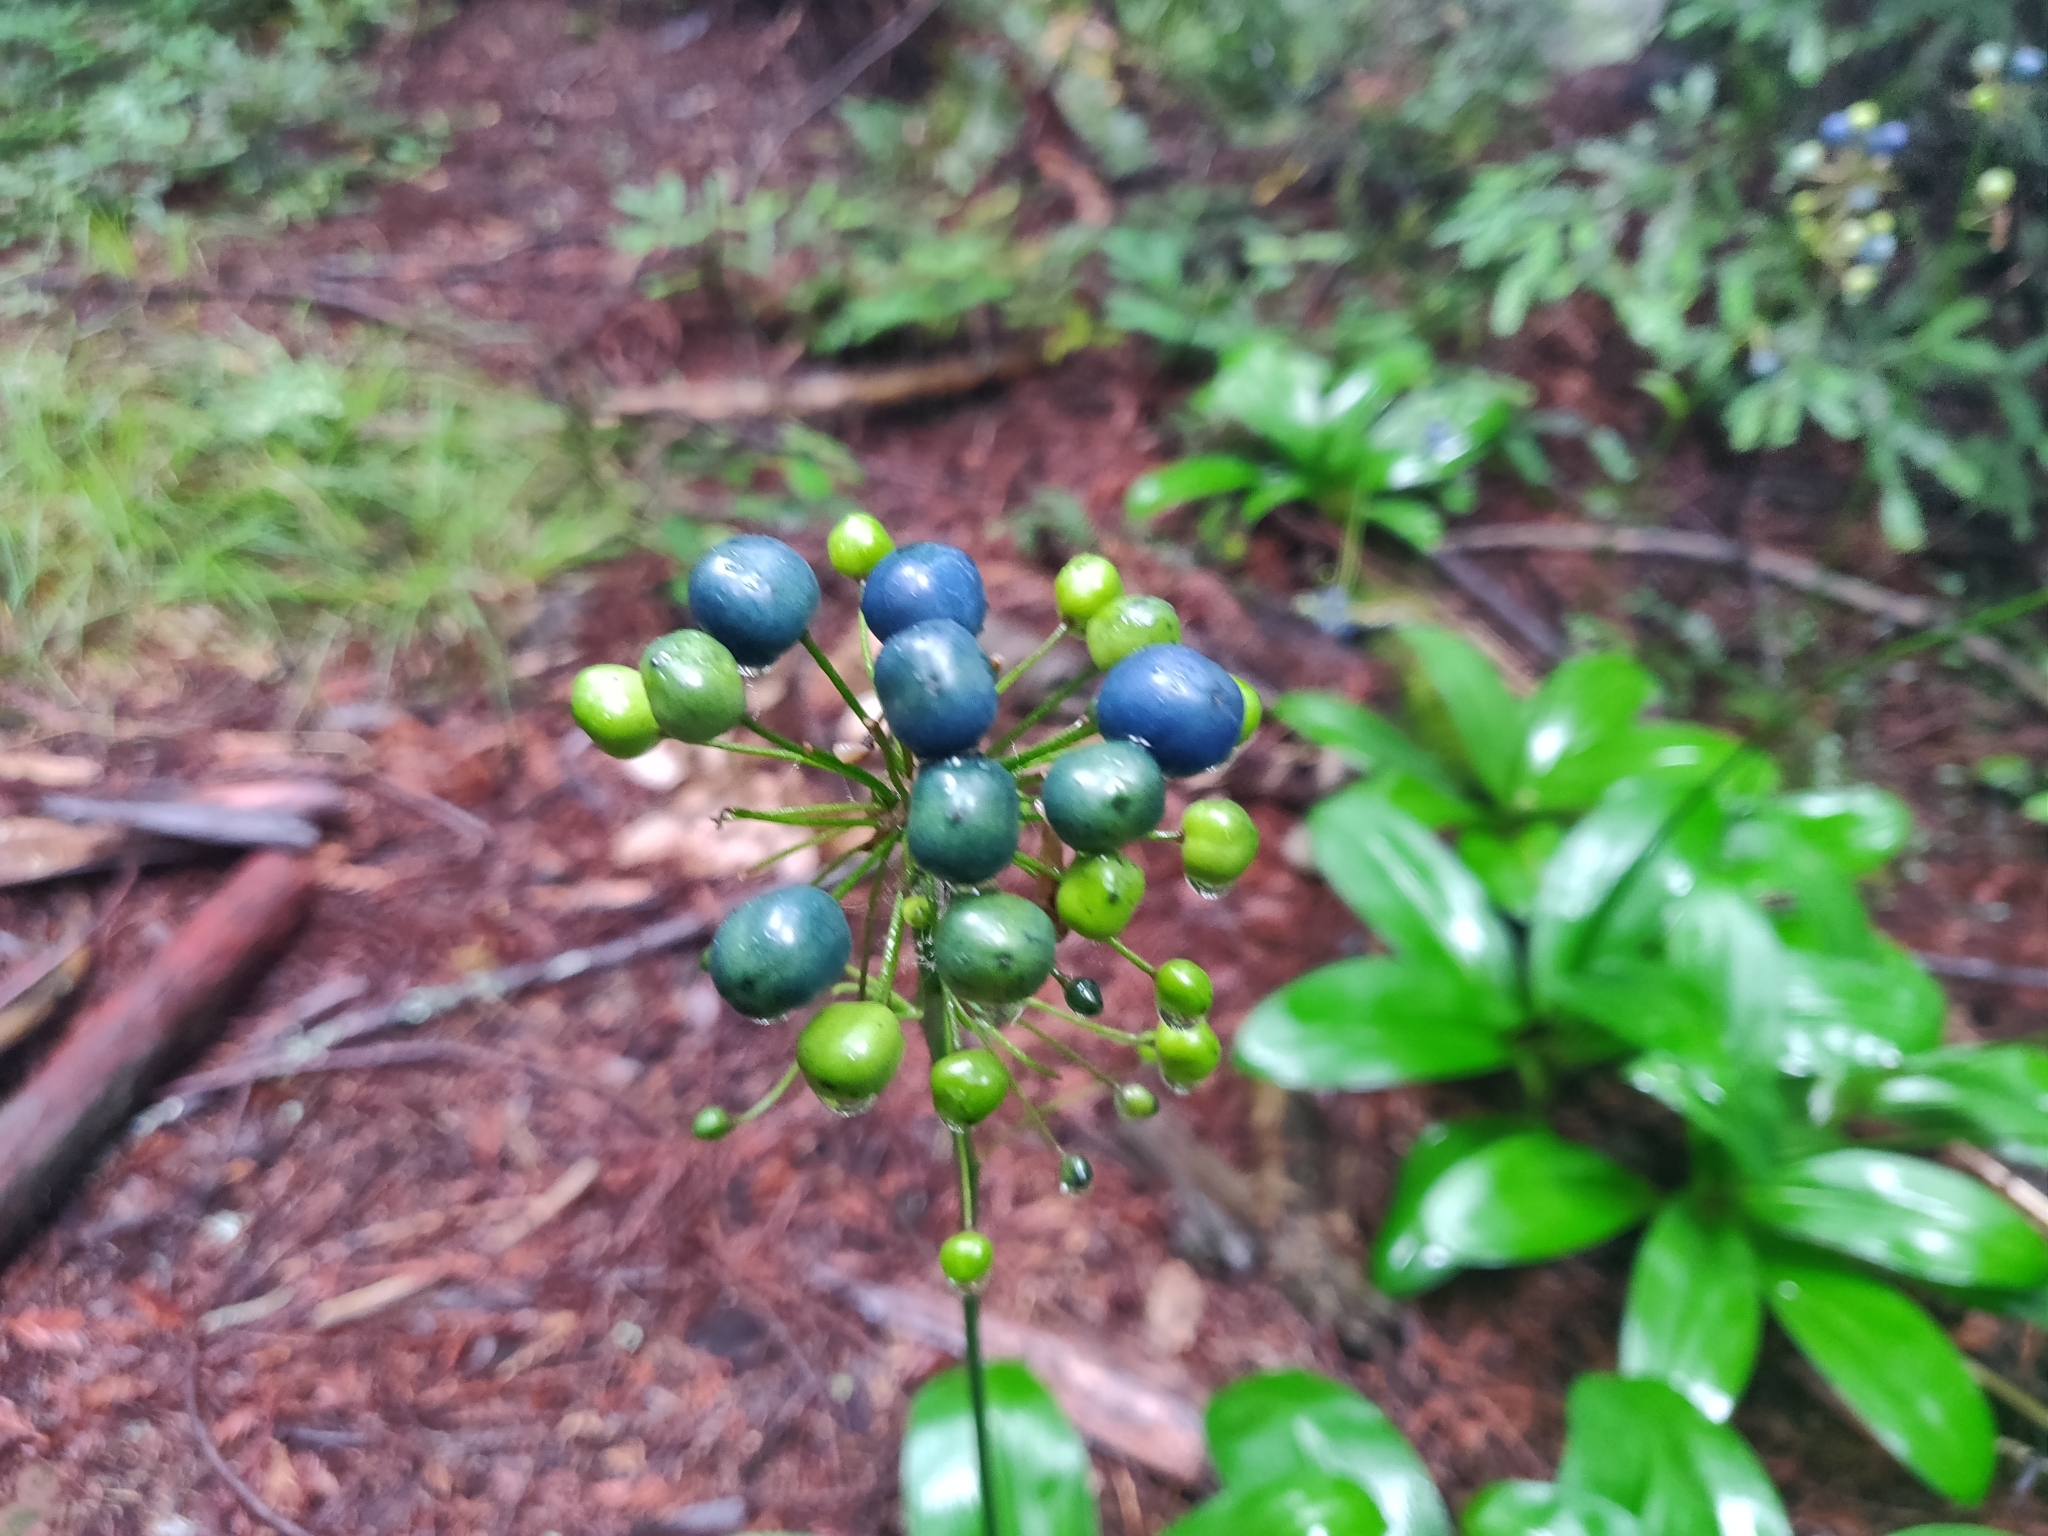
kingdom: Plantae
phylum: Tracheophyta
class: Liliopsida
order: Liliales
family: Liliaceae
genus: Clintonia
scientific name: Clintonia andrewsiana
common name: Red clintonia
